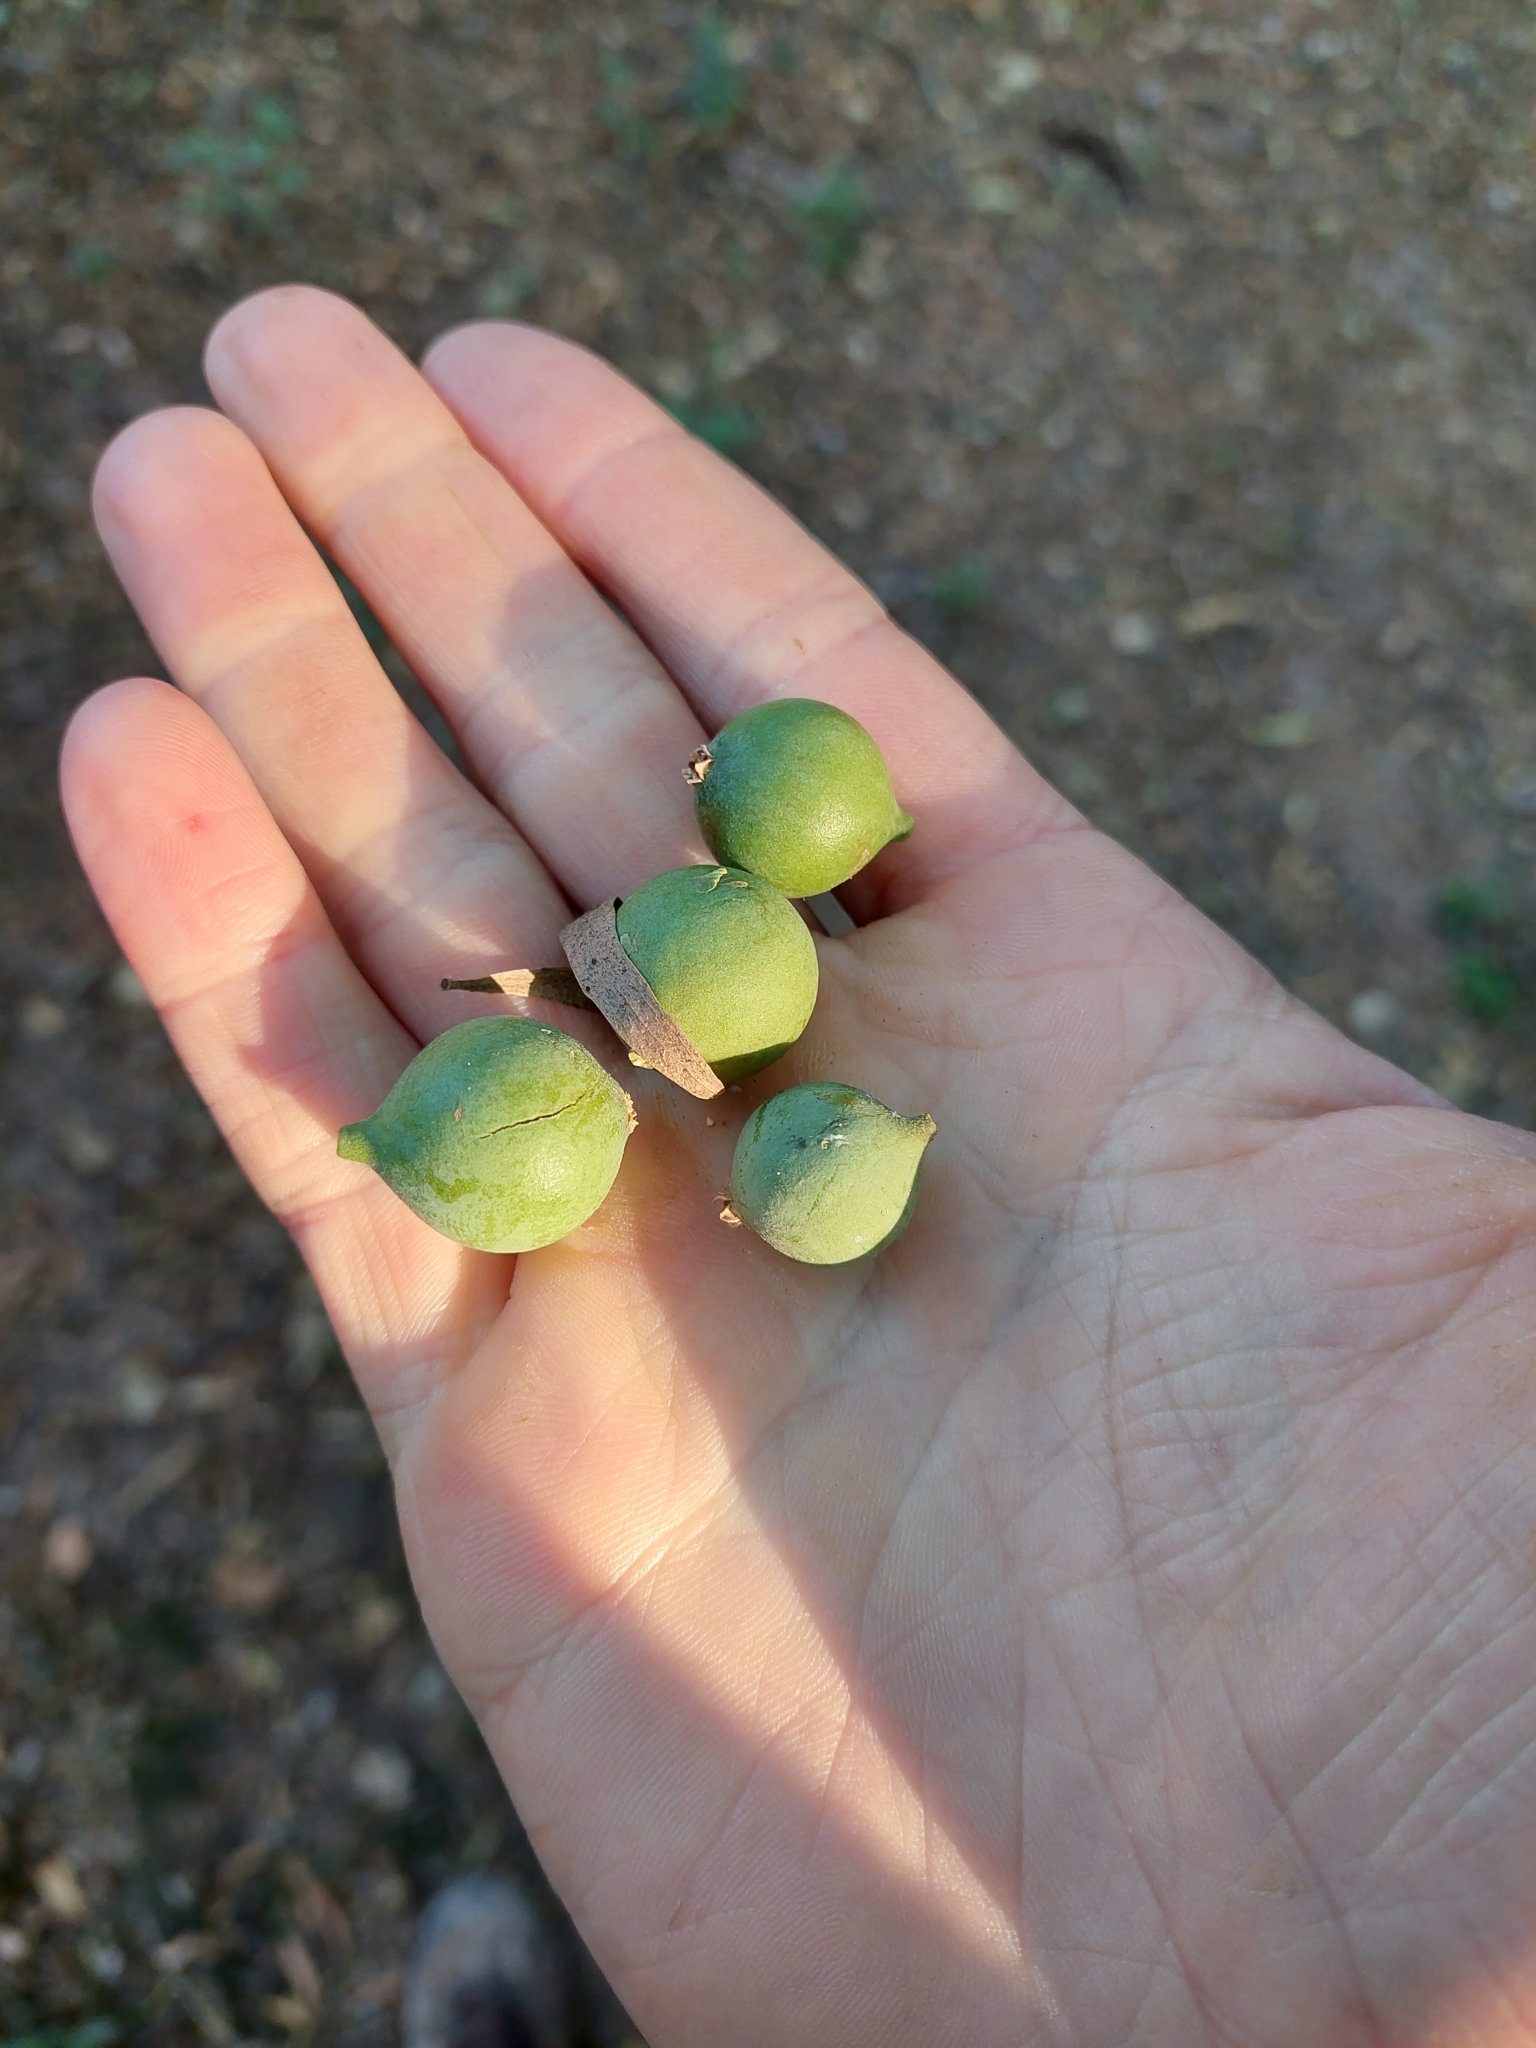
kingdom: Plantae
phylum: Tracheophyta
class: Magnoliopsida
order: Santalales
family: Cervantesiaceae
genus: Acanthosyris
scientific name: Acanthosyris falcata
